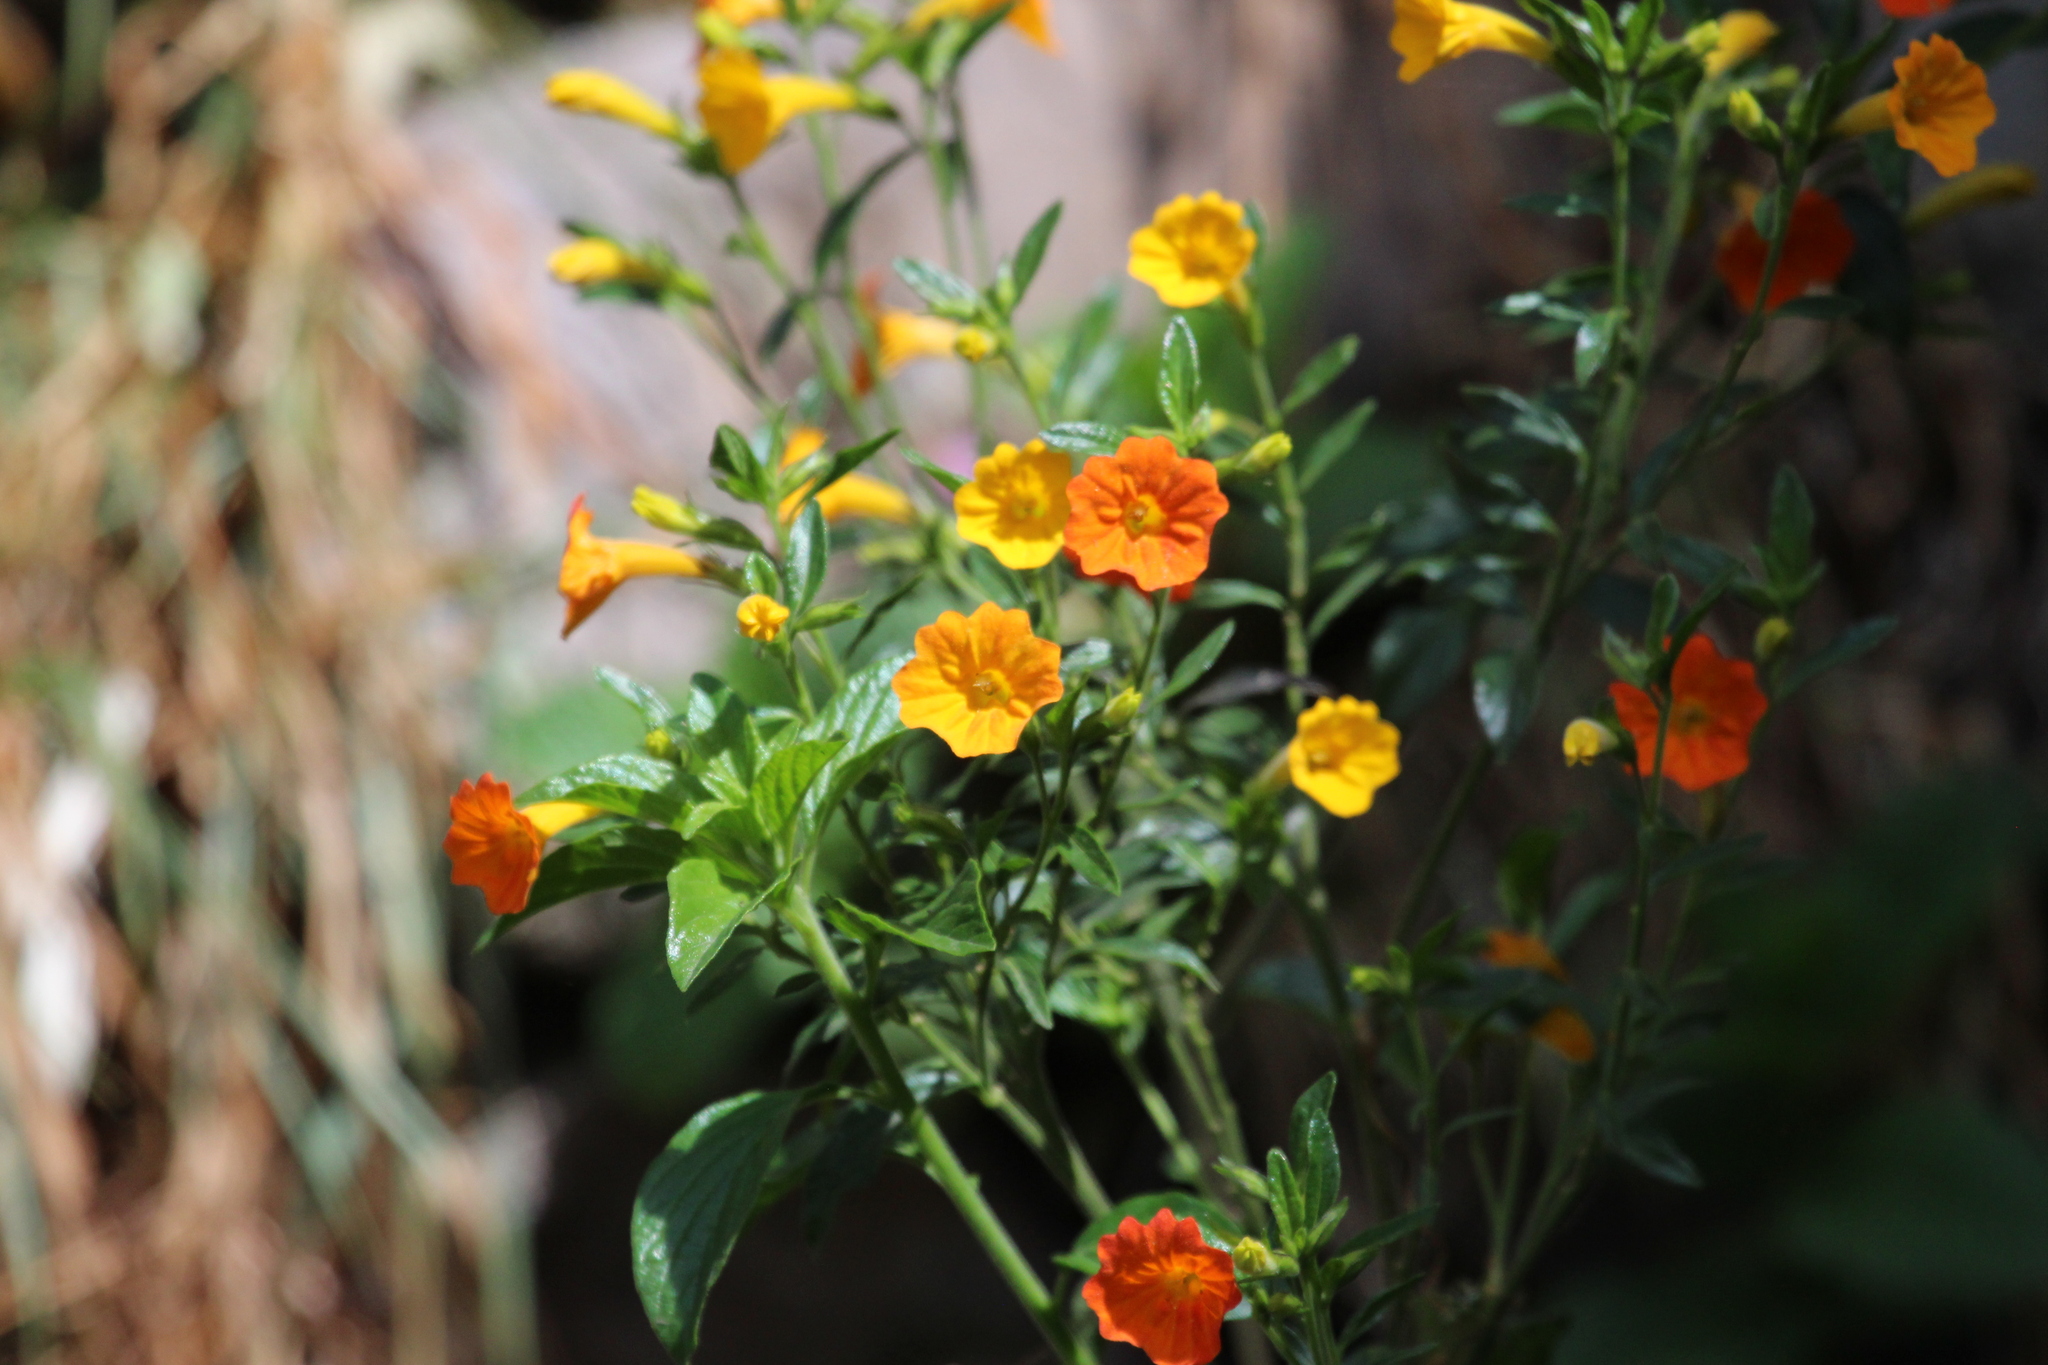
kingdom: Plantae
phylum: Tracheophyta
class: Magnoliopsida
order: Solanales
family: Solanaceae
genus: Streptosolen
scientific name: Streptosolen jamesonii
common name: Marmalade bush
